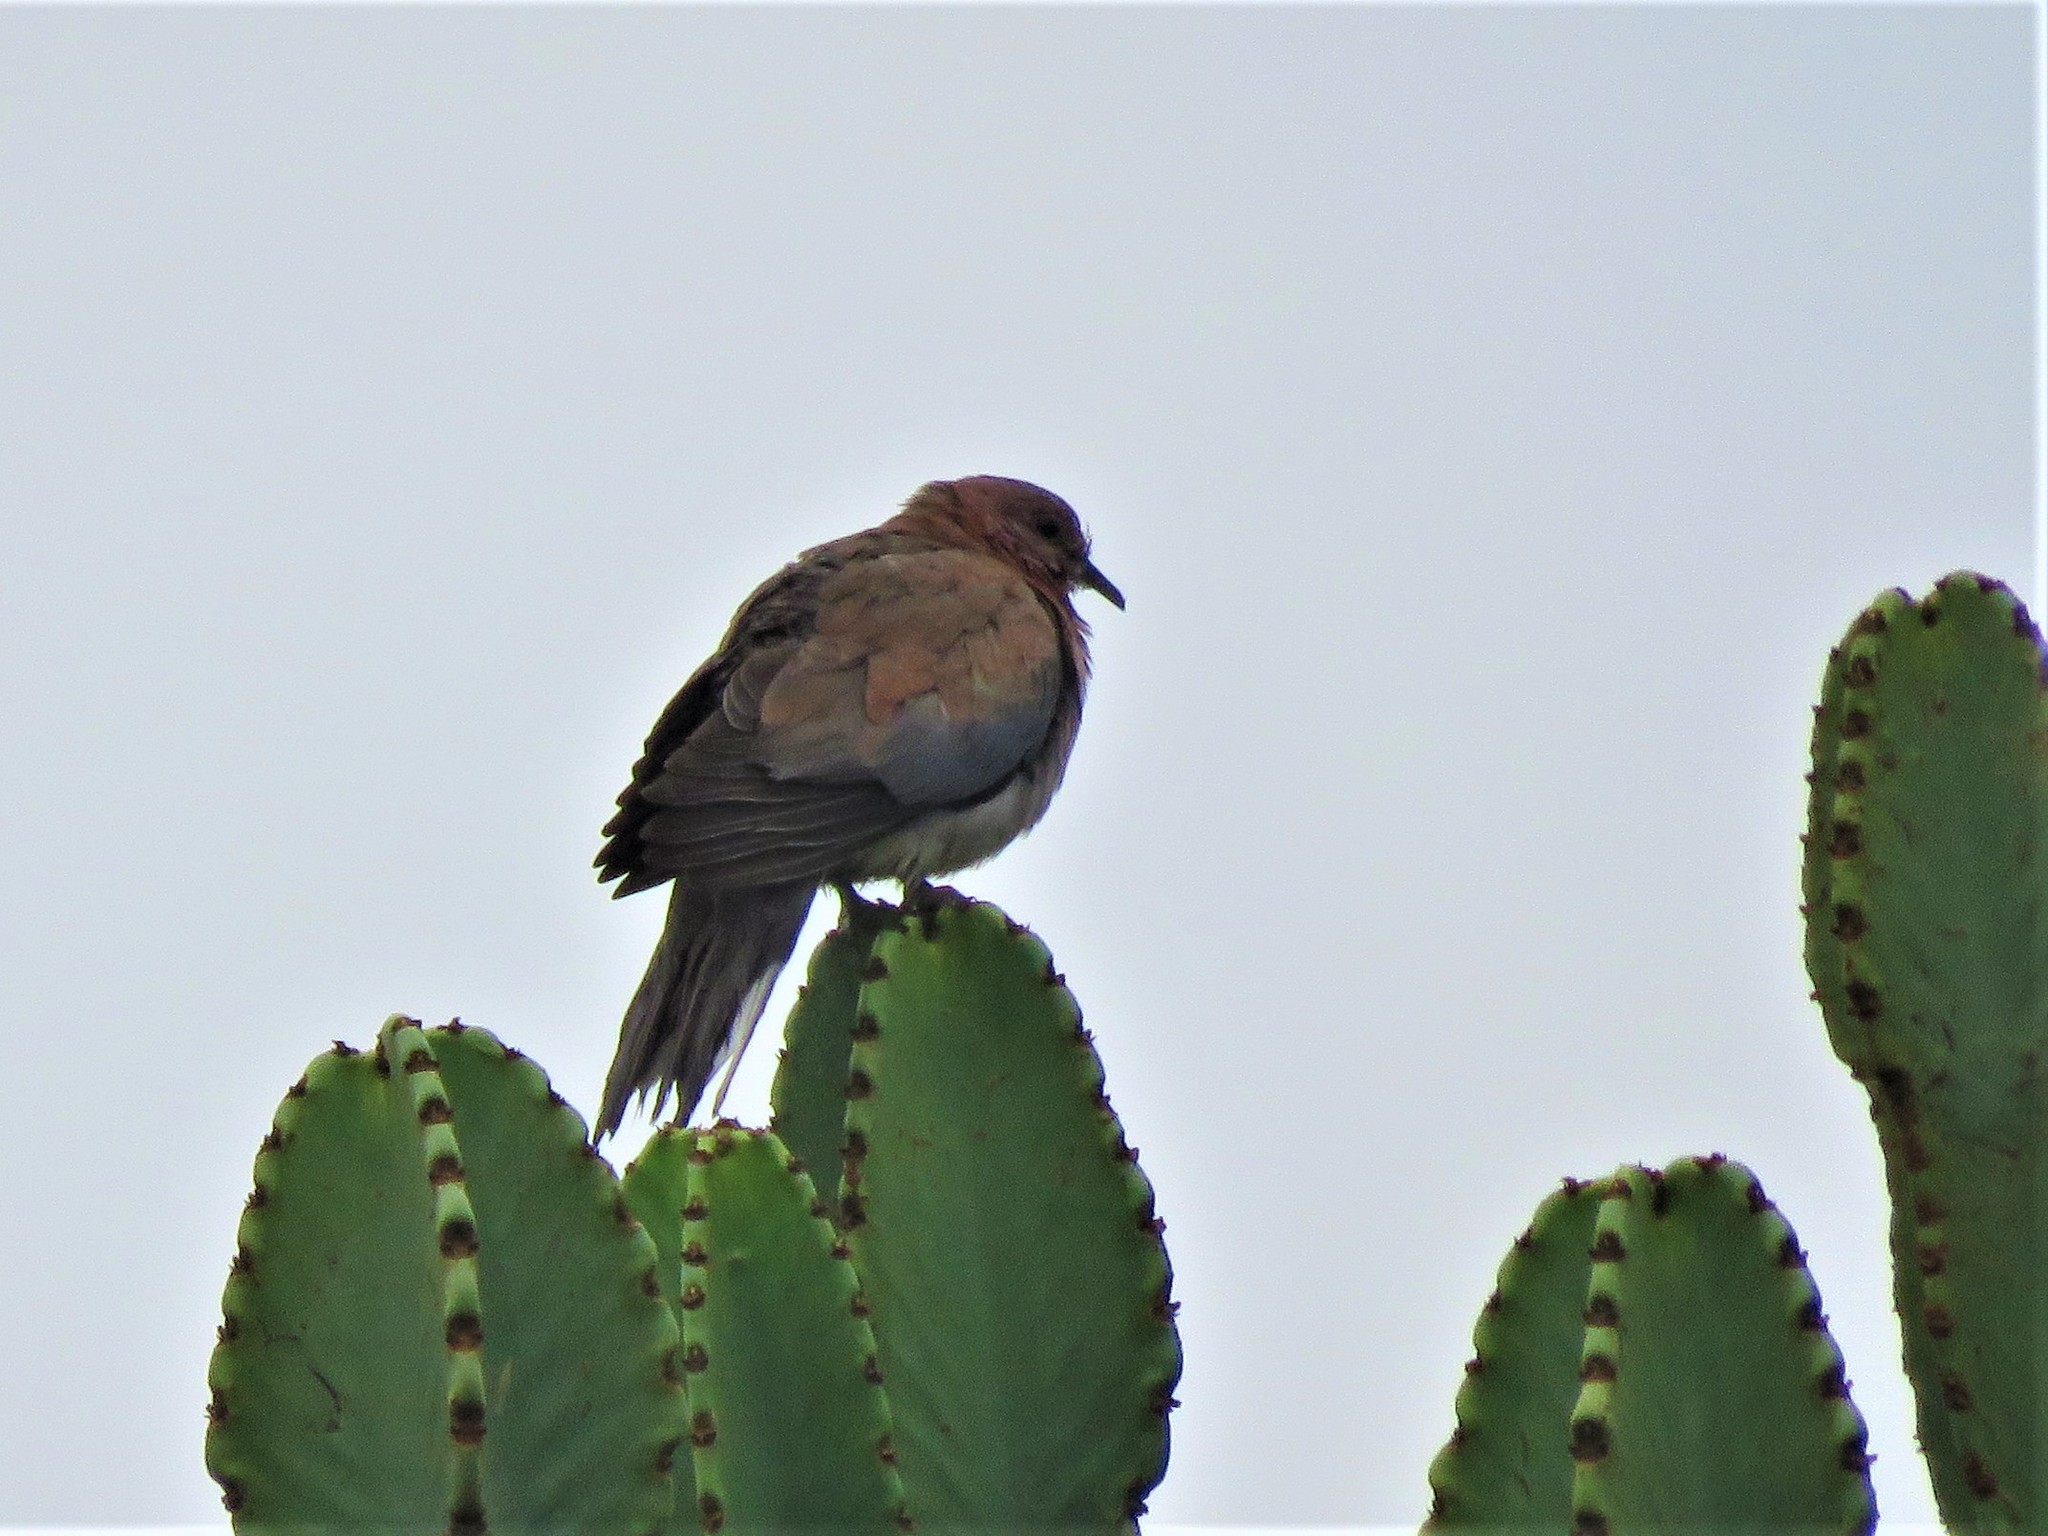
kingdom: Animalia
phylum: Chordata
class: Aves
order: Columbiformes
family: Columbidae
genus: Spilopelia
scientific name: Spilopelia senegalensis
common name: Laughing dove
